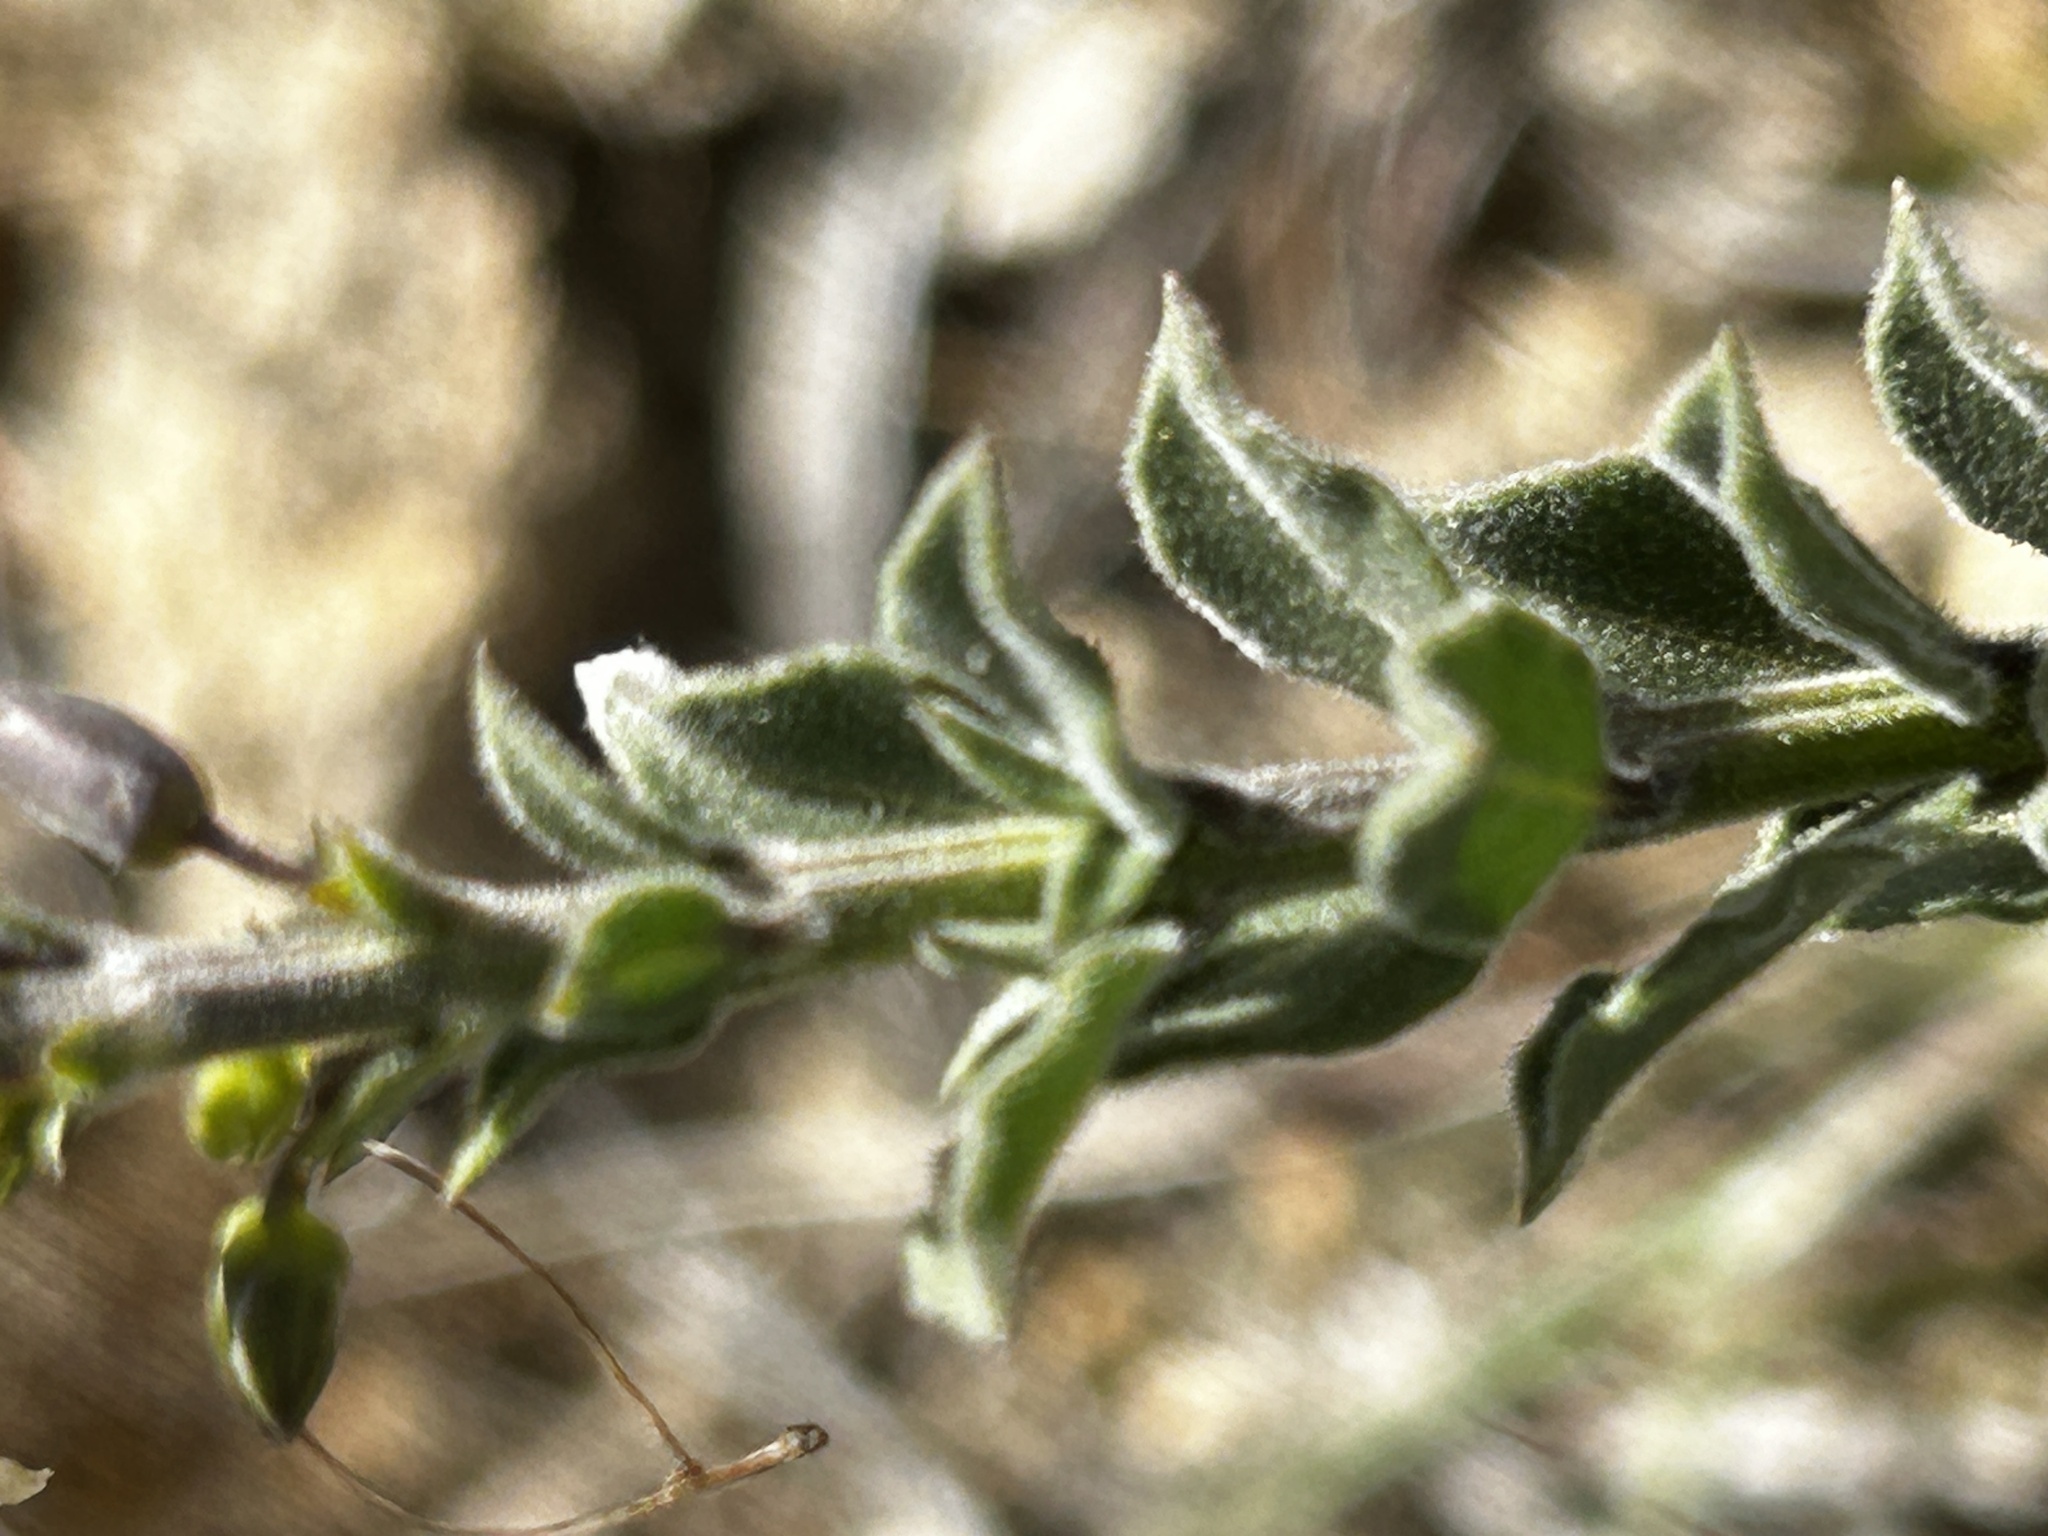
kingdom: Plantae
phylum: Tracheophyta
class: Magnoliopsida
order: Lamiales
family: Scrophulariaceae
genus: Freylinia
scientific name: Freylinia undulata
